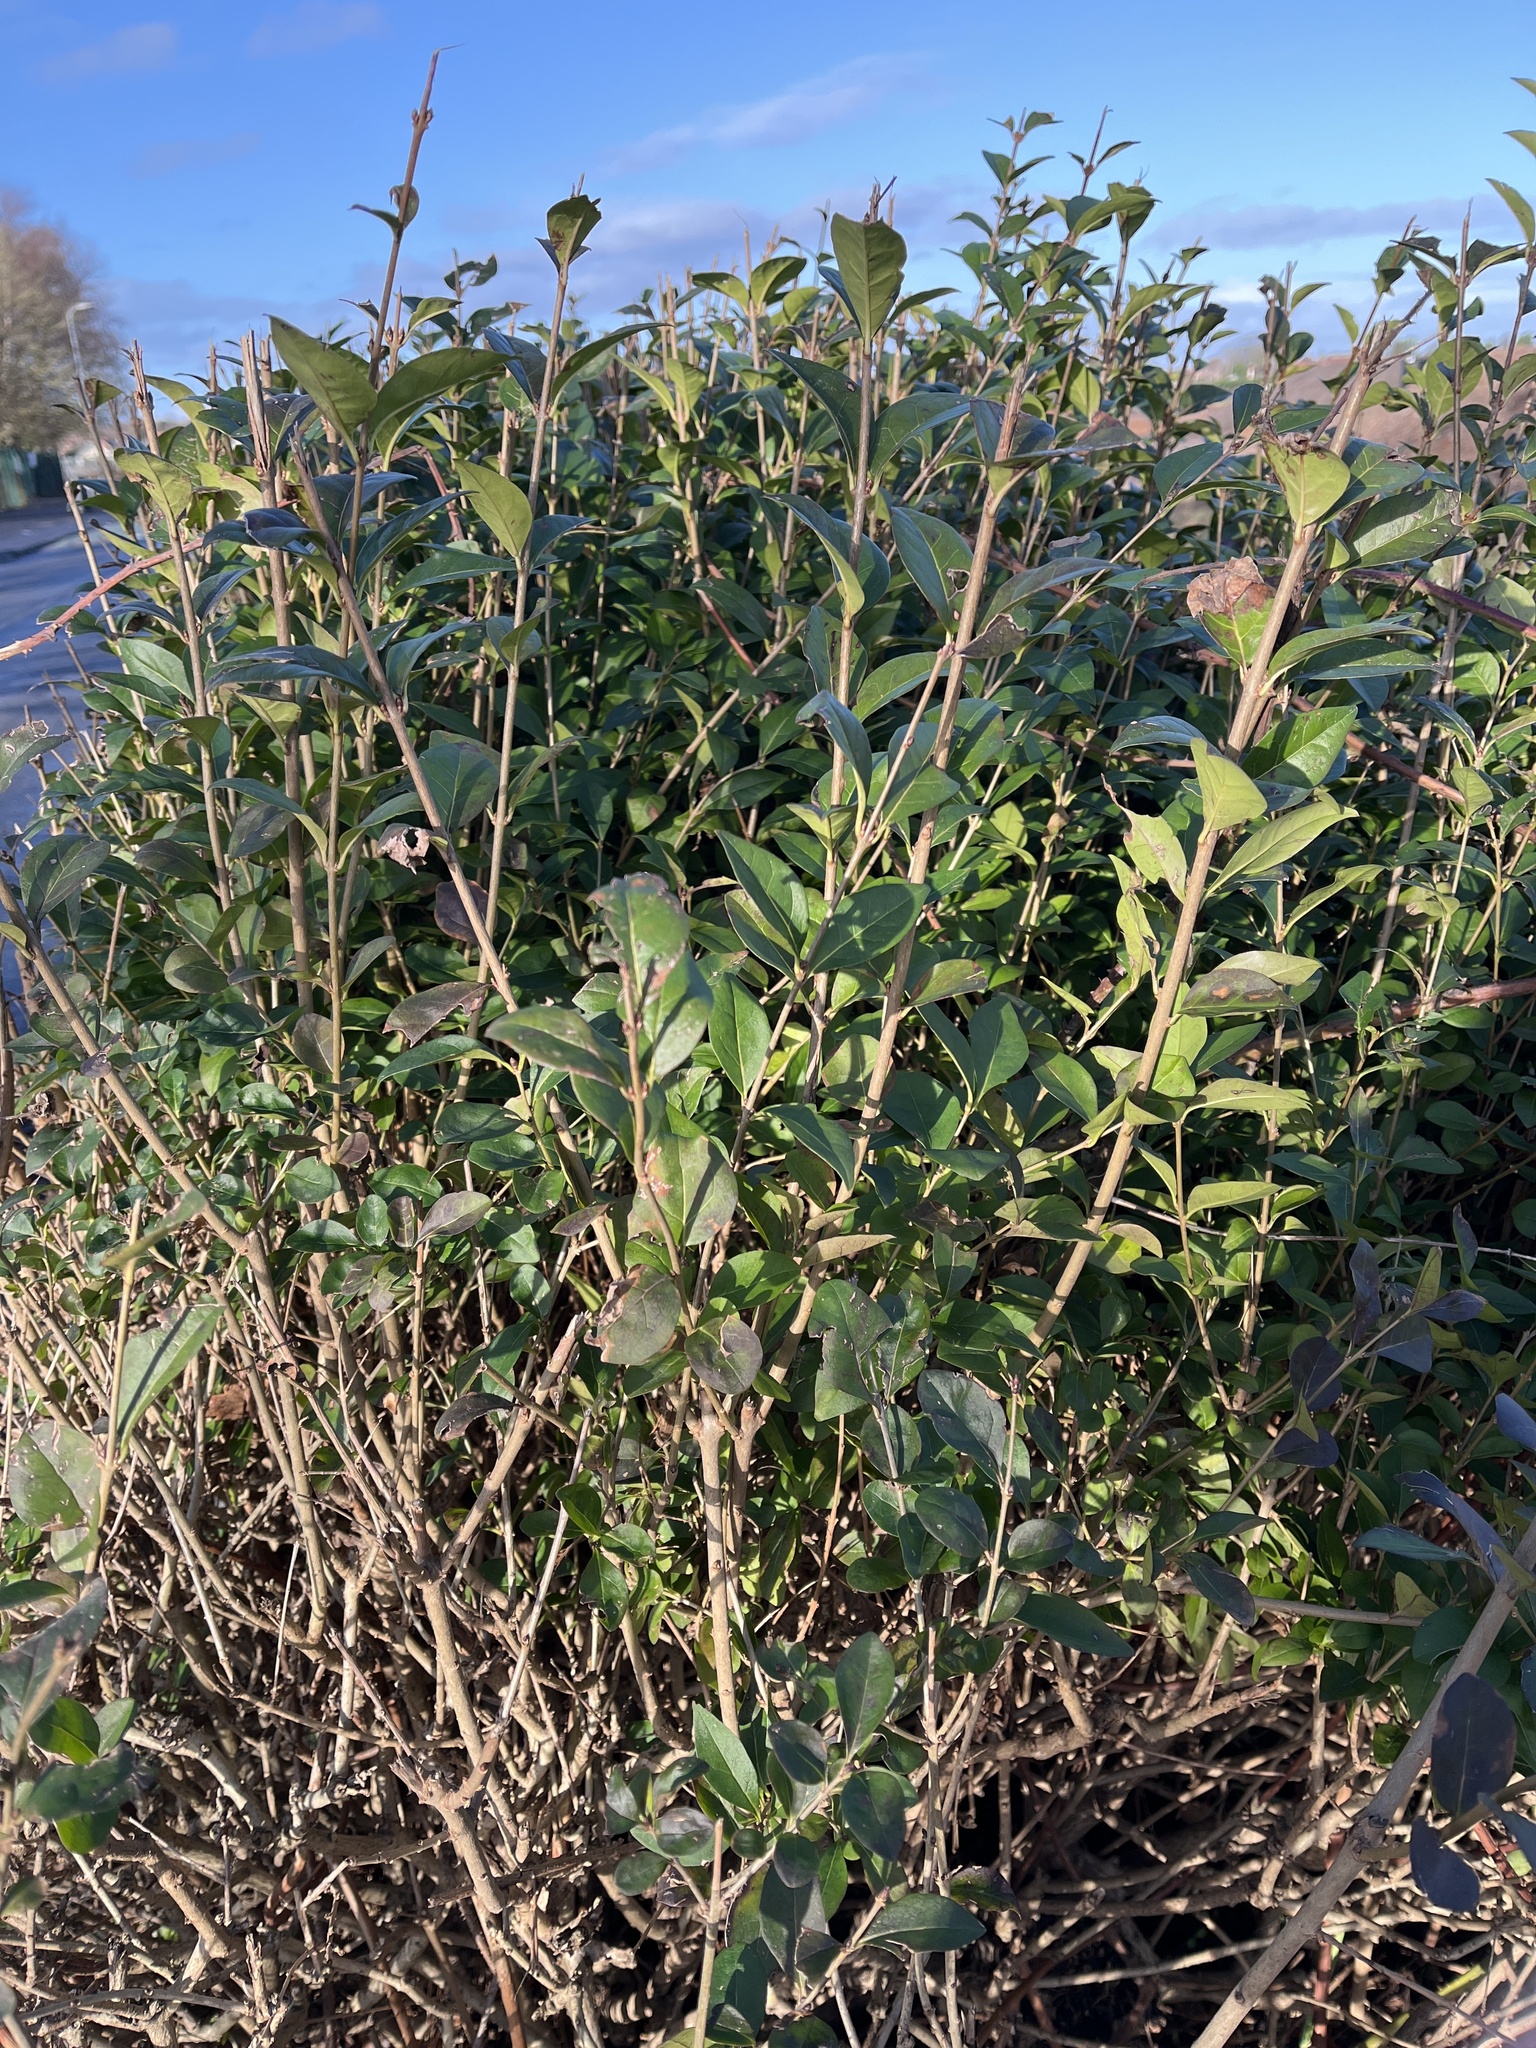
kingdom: Plantae
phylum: Tracheophyta
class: Magnoliopsida
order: Lamiales
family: Oleaceae
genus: Ligustrum
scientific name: Ligustrum ovalifolium
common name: California privet
